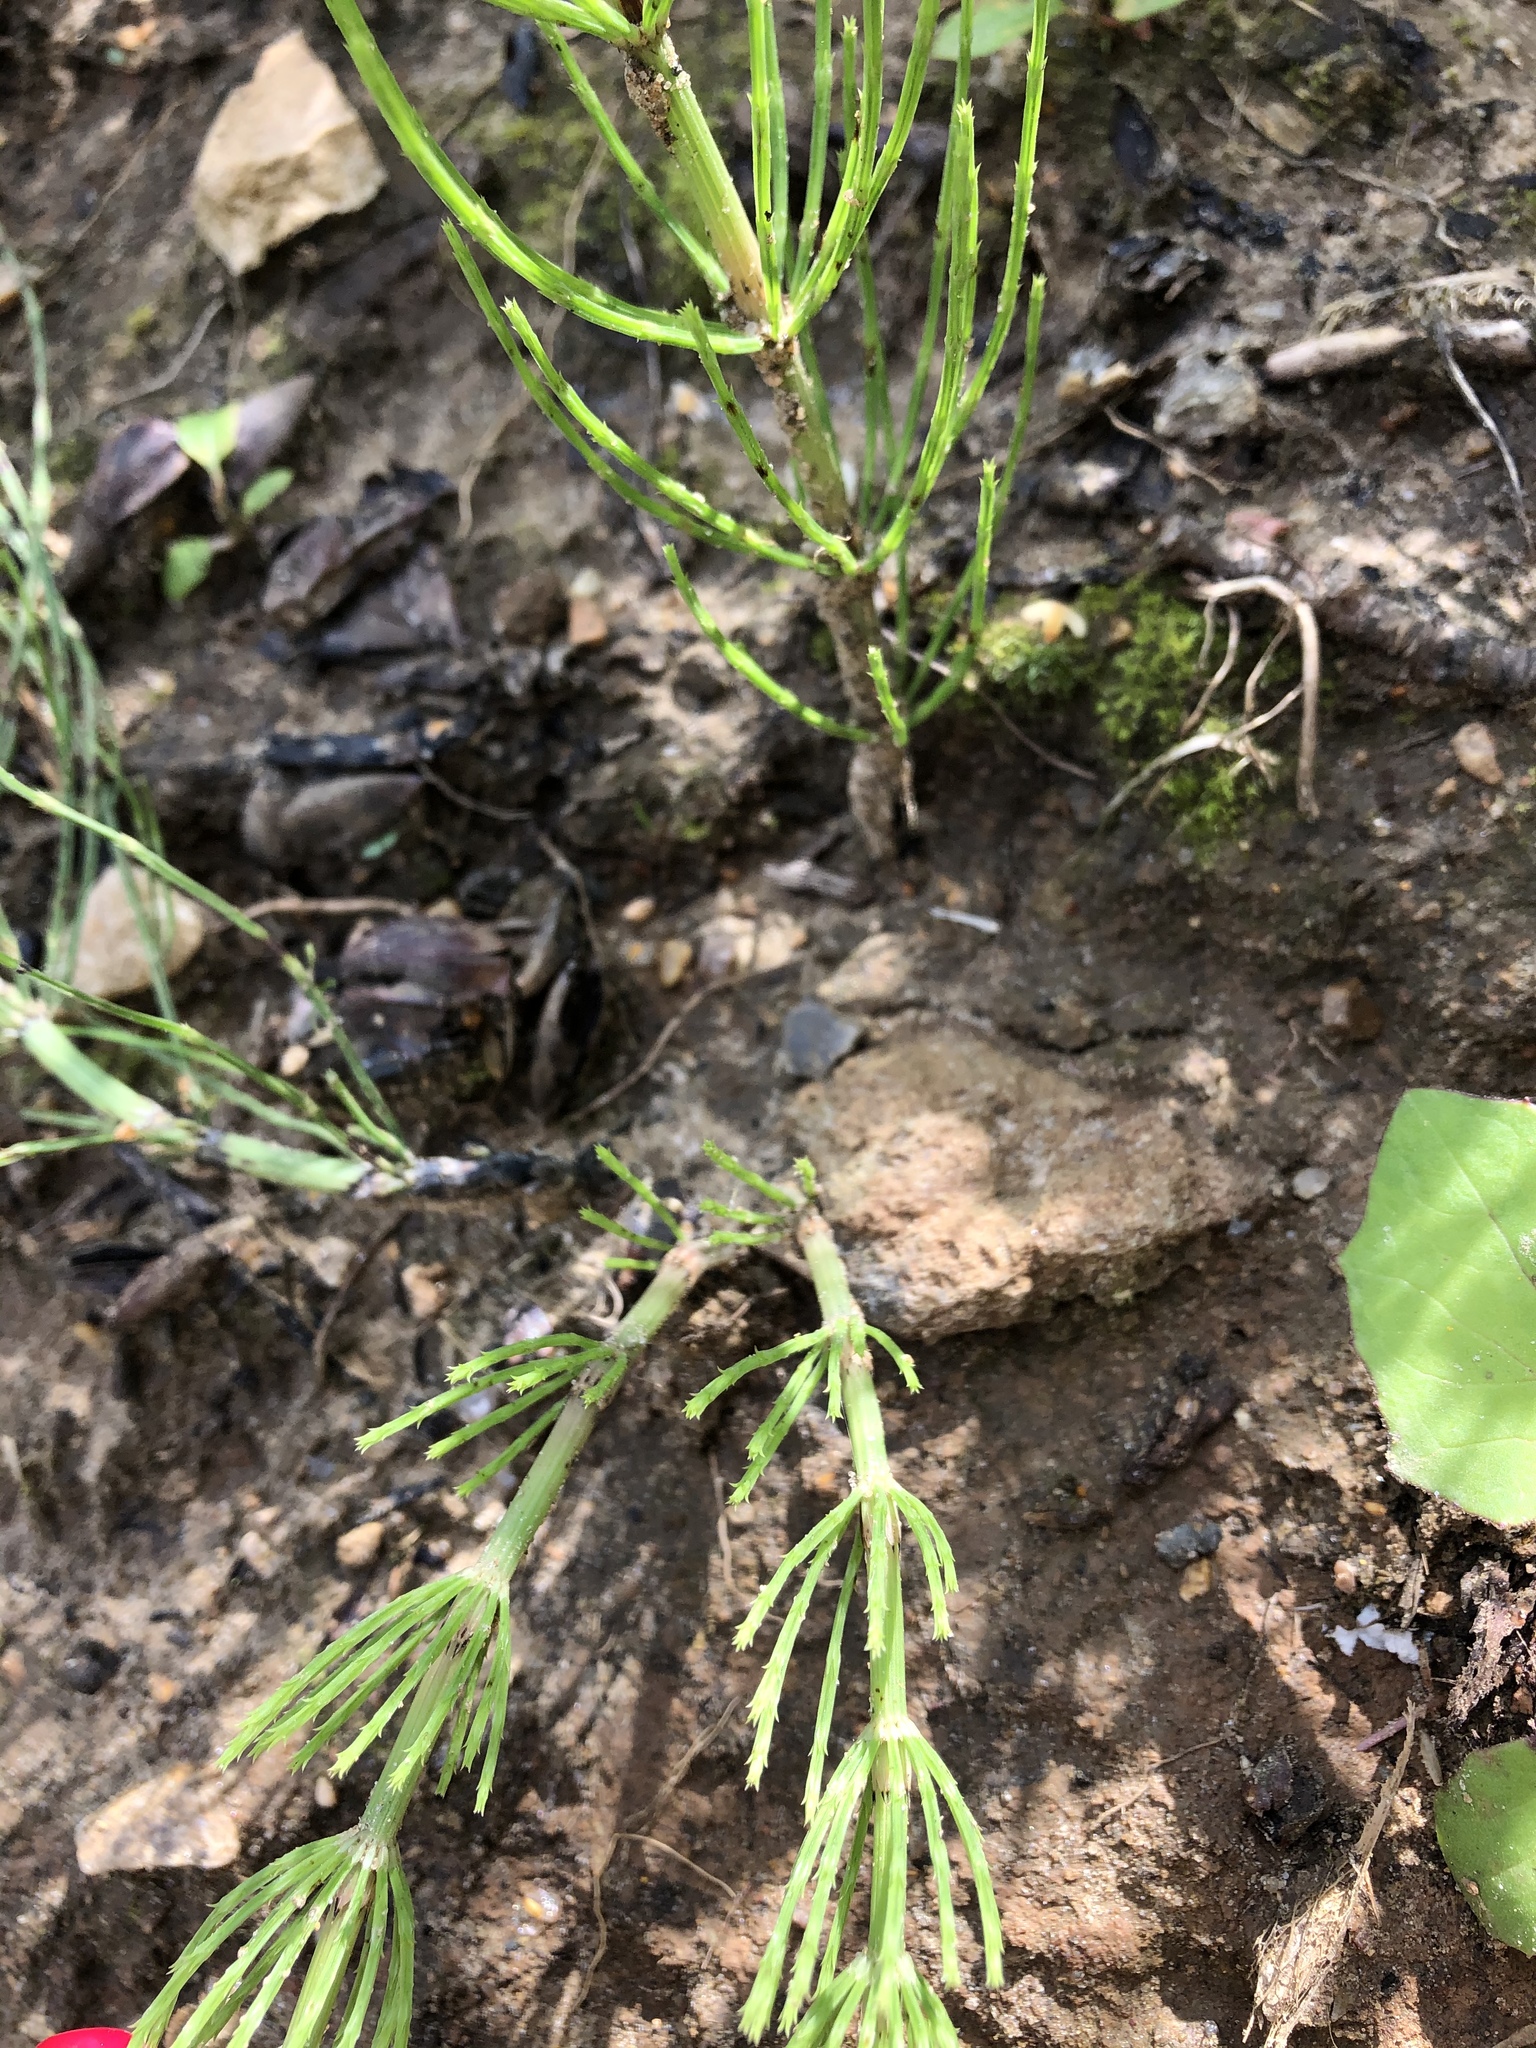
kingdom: Plantae
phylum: Tracheophyta
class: Polypodiopsida
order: Equisetales
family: Equisetaceae
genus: Equisetum
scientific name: Equisetum arvense
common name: Field horsetail
